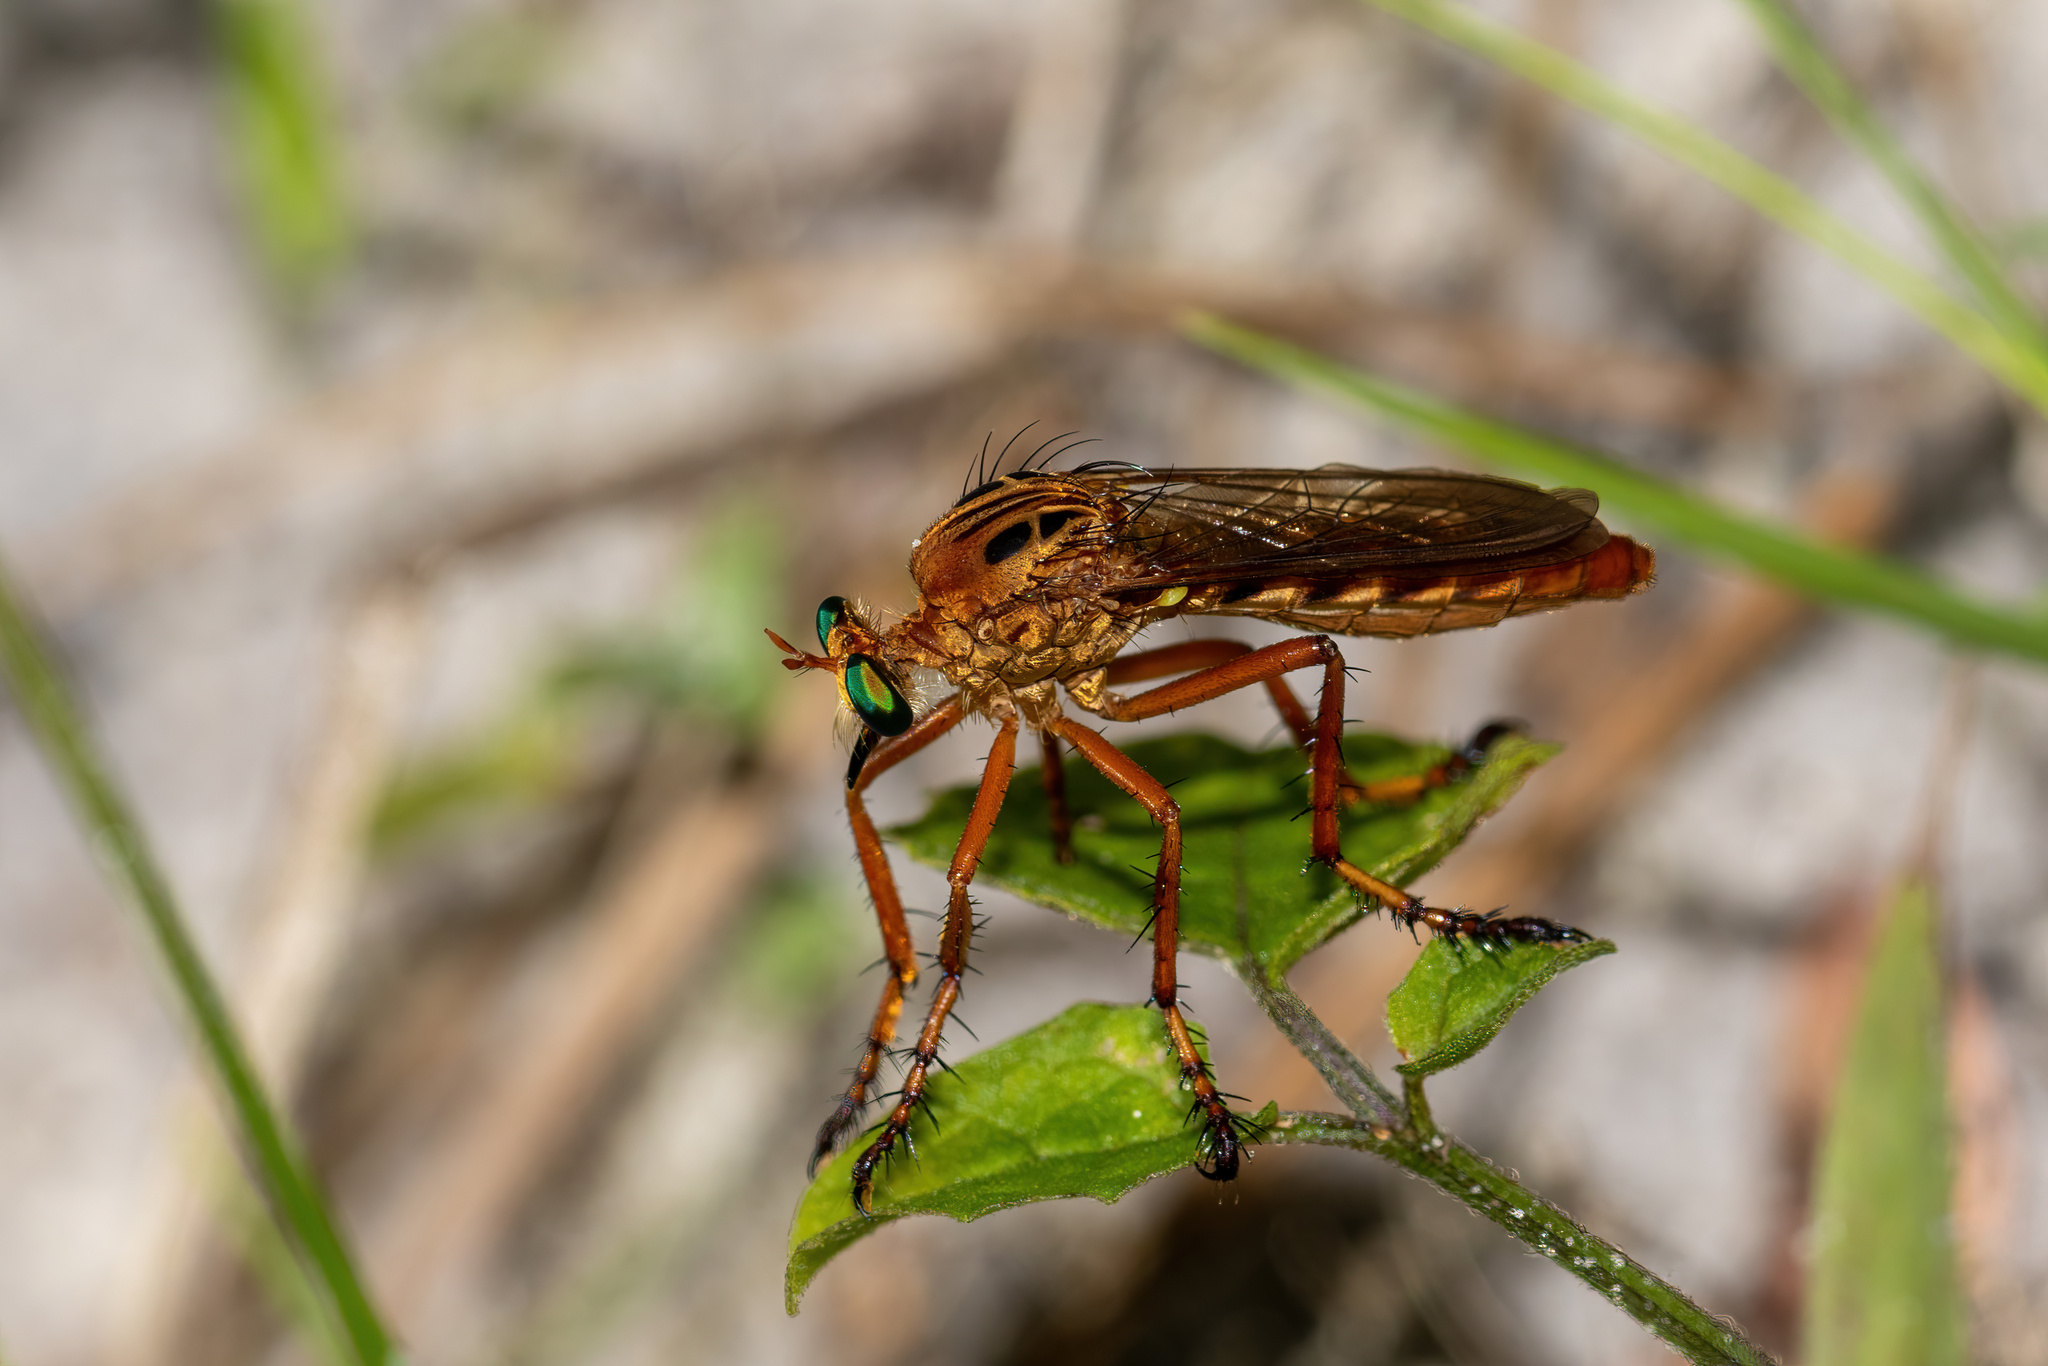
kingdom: Animalia
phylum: Arthropoda
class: Insecta
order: Diptera
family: Asilidae
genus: Diogmites
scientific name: Diogmites esuriens
